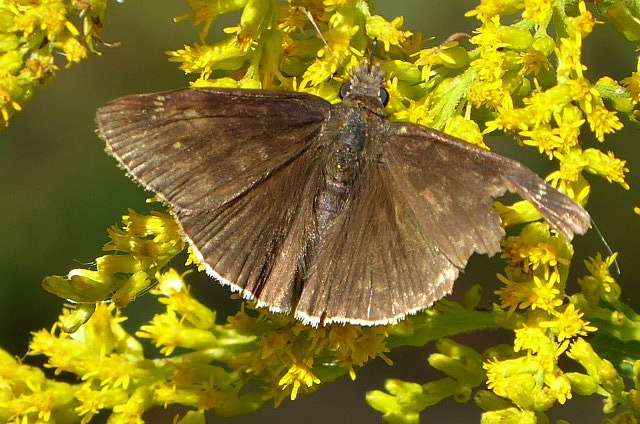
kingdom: Animalia
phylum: Arthropoda
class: Insecta
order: Lepidoptera
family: Hesperiidae
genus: Erynnis
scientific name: Erynnis funeralis
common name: Funereal duskywing
